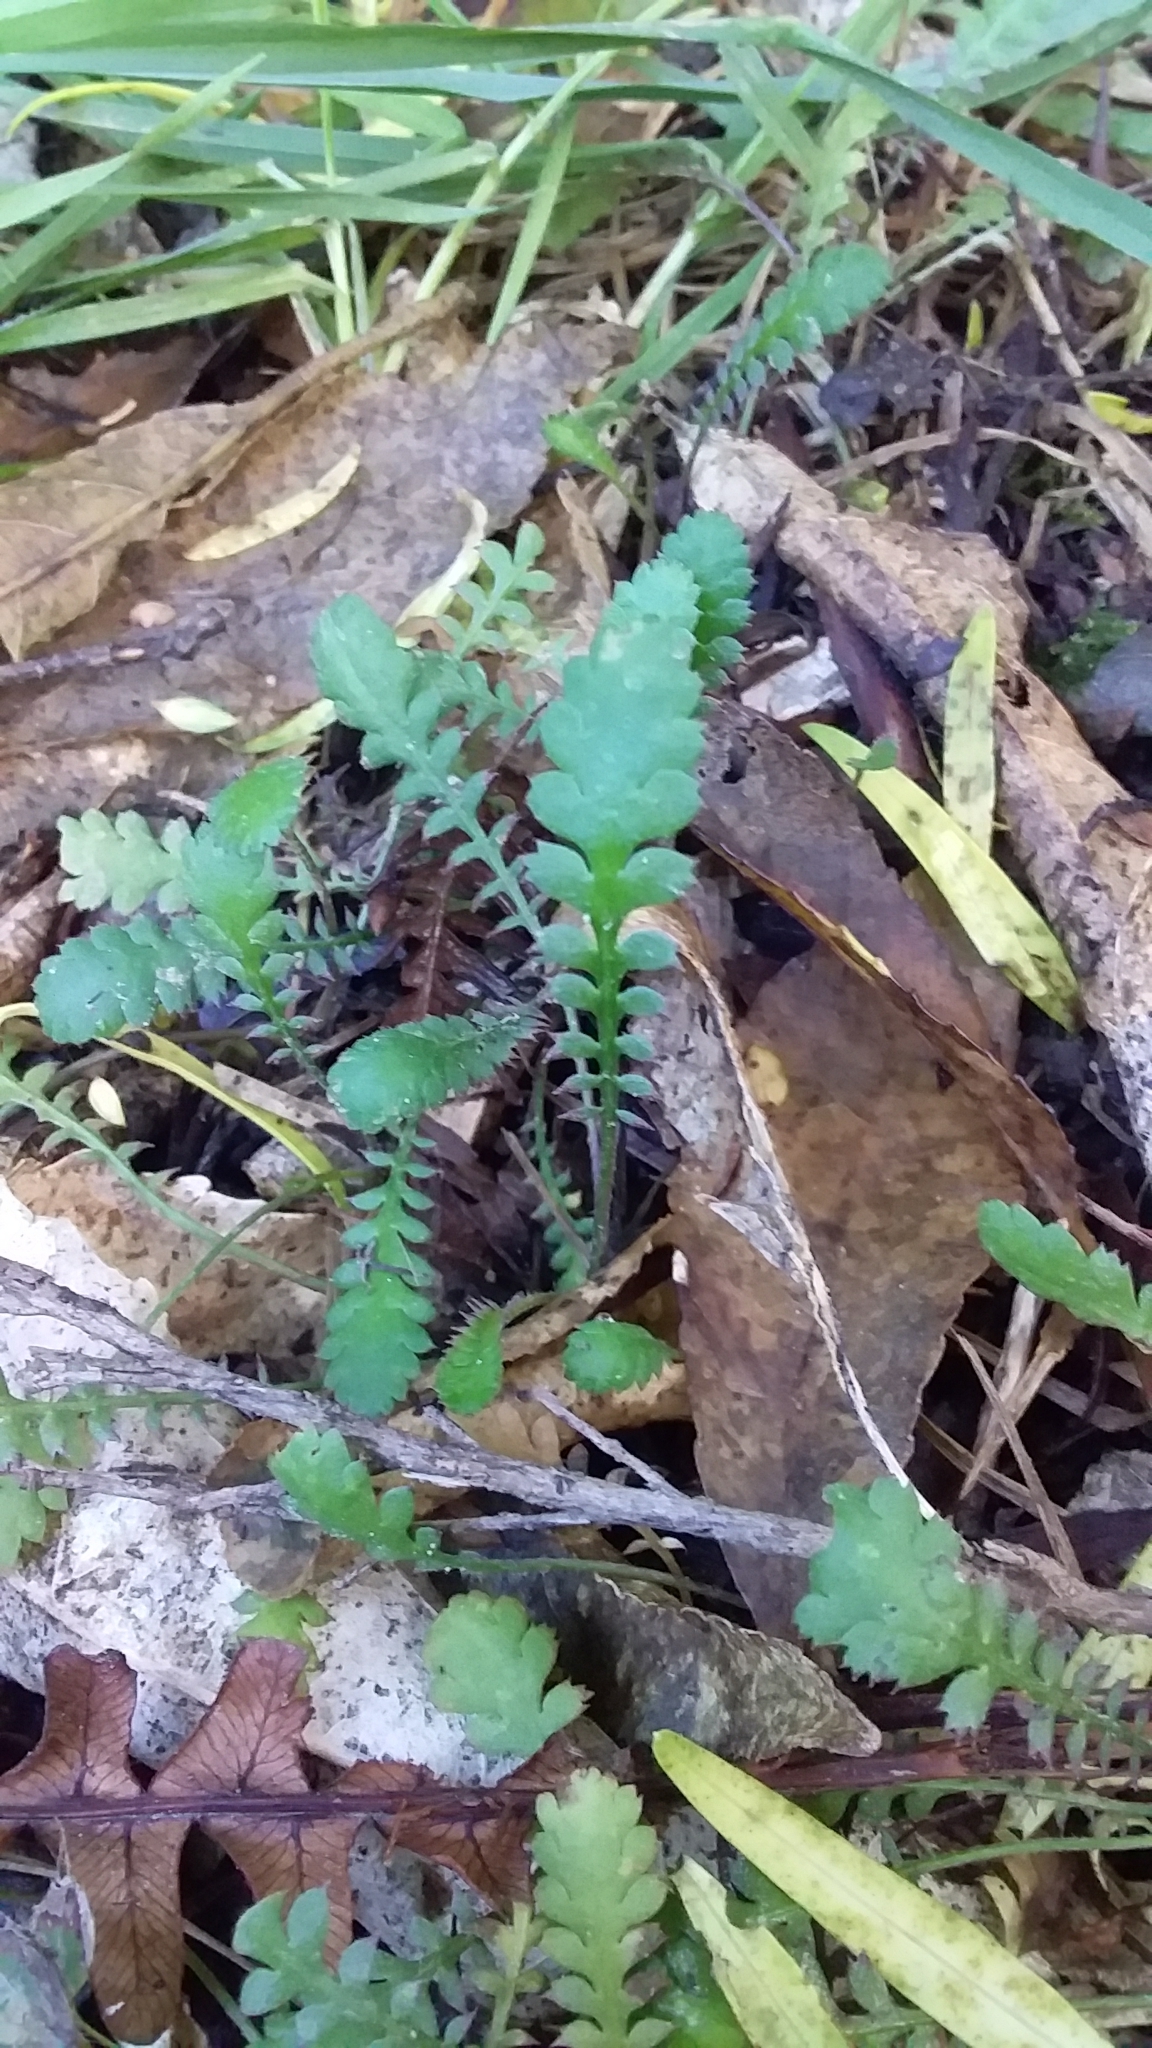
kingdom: Plantae
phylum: Tracheophyta
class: Magnoliopsida
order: Asterales
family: Asteraceae
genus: Leptinella
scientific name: Leptinella squalida
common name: New zealand brass-buttons
